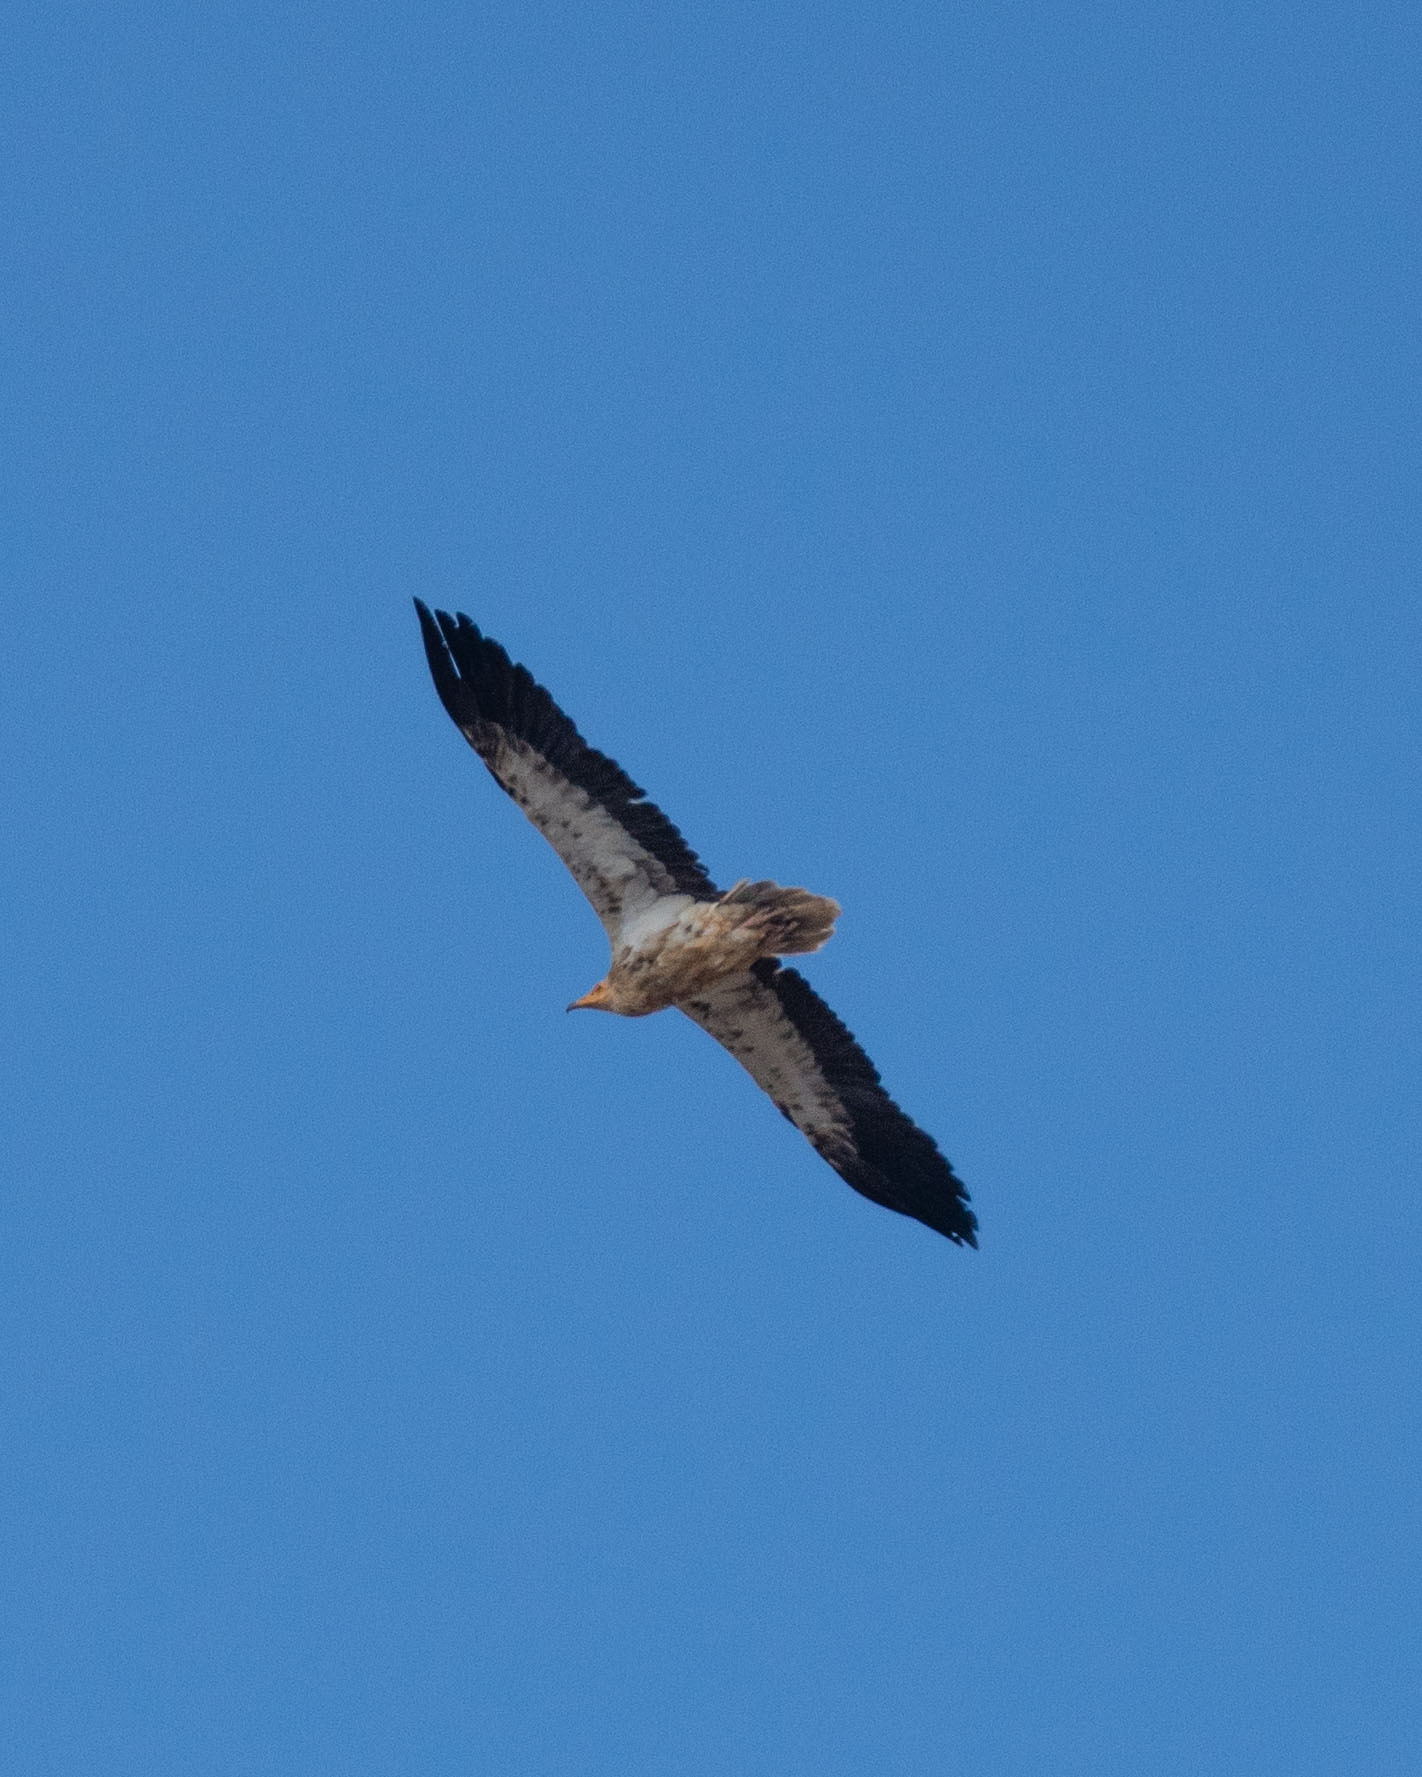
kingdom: Animalia
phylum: Chordata
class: Aves
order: Accipitriformes
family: Accipitridae
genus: Neophron
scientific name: Neophron percnopterus
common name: Egyptian vulture
